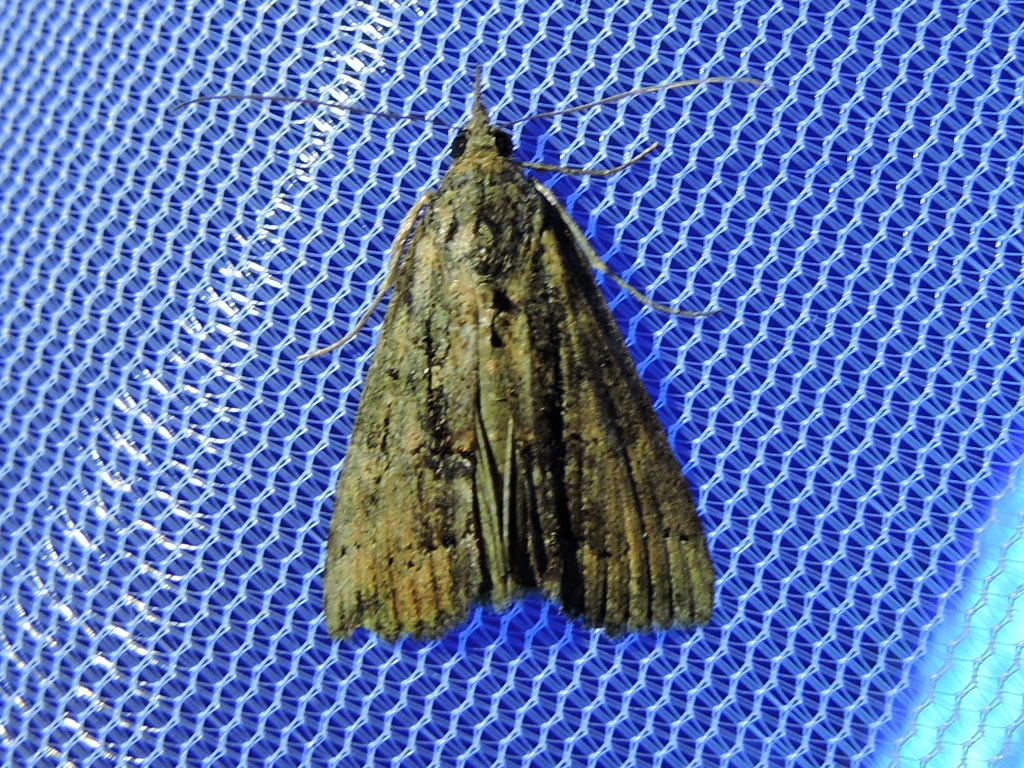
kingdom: Animalia
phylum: Arthropoda
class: Insecta
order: Lepidoptera
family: Erebidae
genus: Hypena
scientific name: Hypena scabra
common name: Green cloverworm
